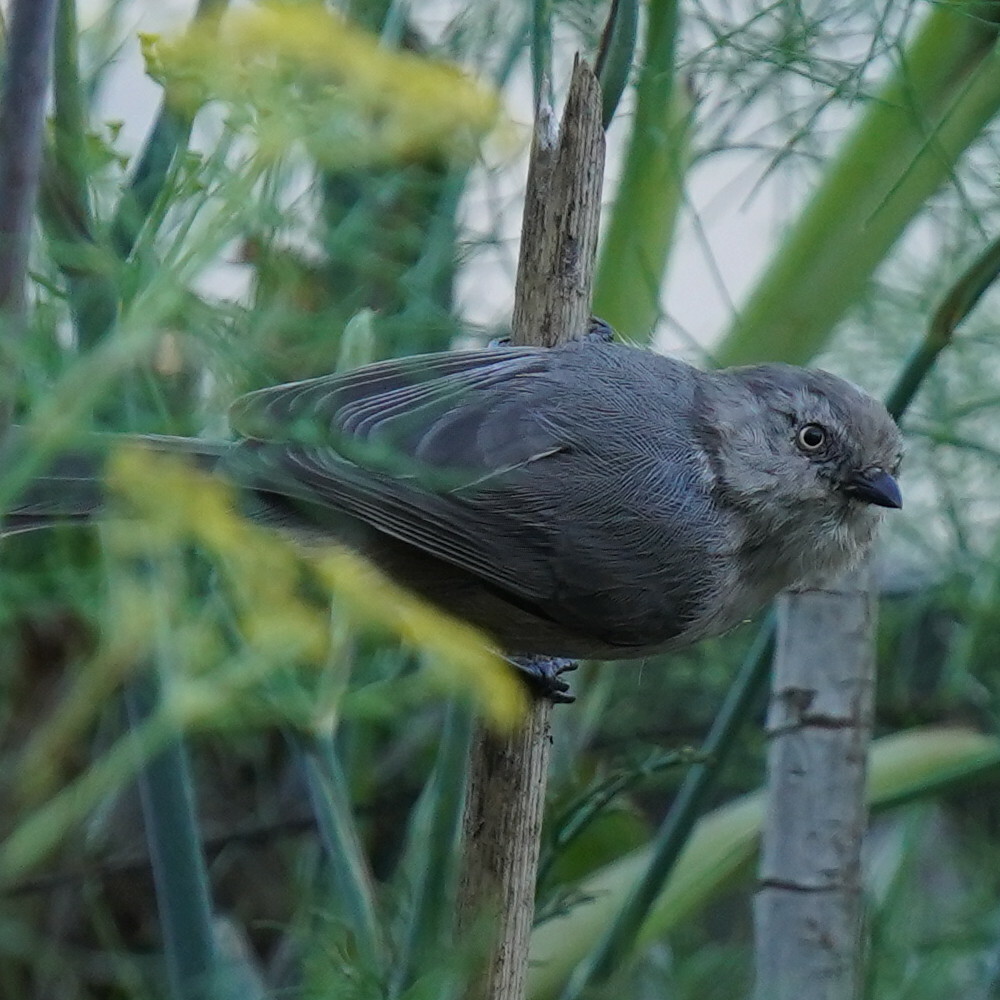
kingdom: Animalia
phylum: Chordata
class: Aves
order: Passeriformes
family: Aegithalidae
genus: Psaltriparus
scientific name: Psaltriparus minimus
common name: American bushtit
